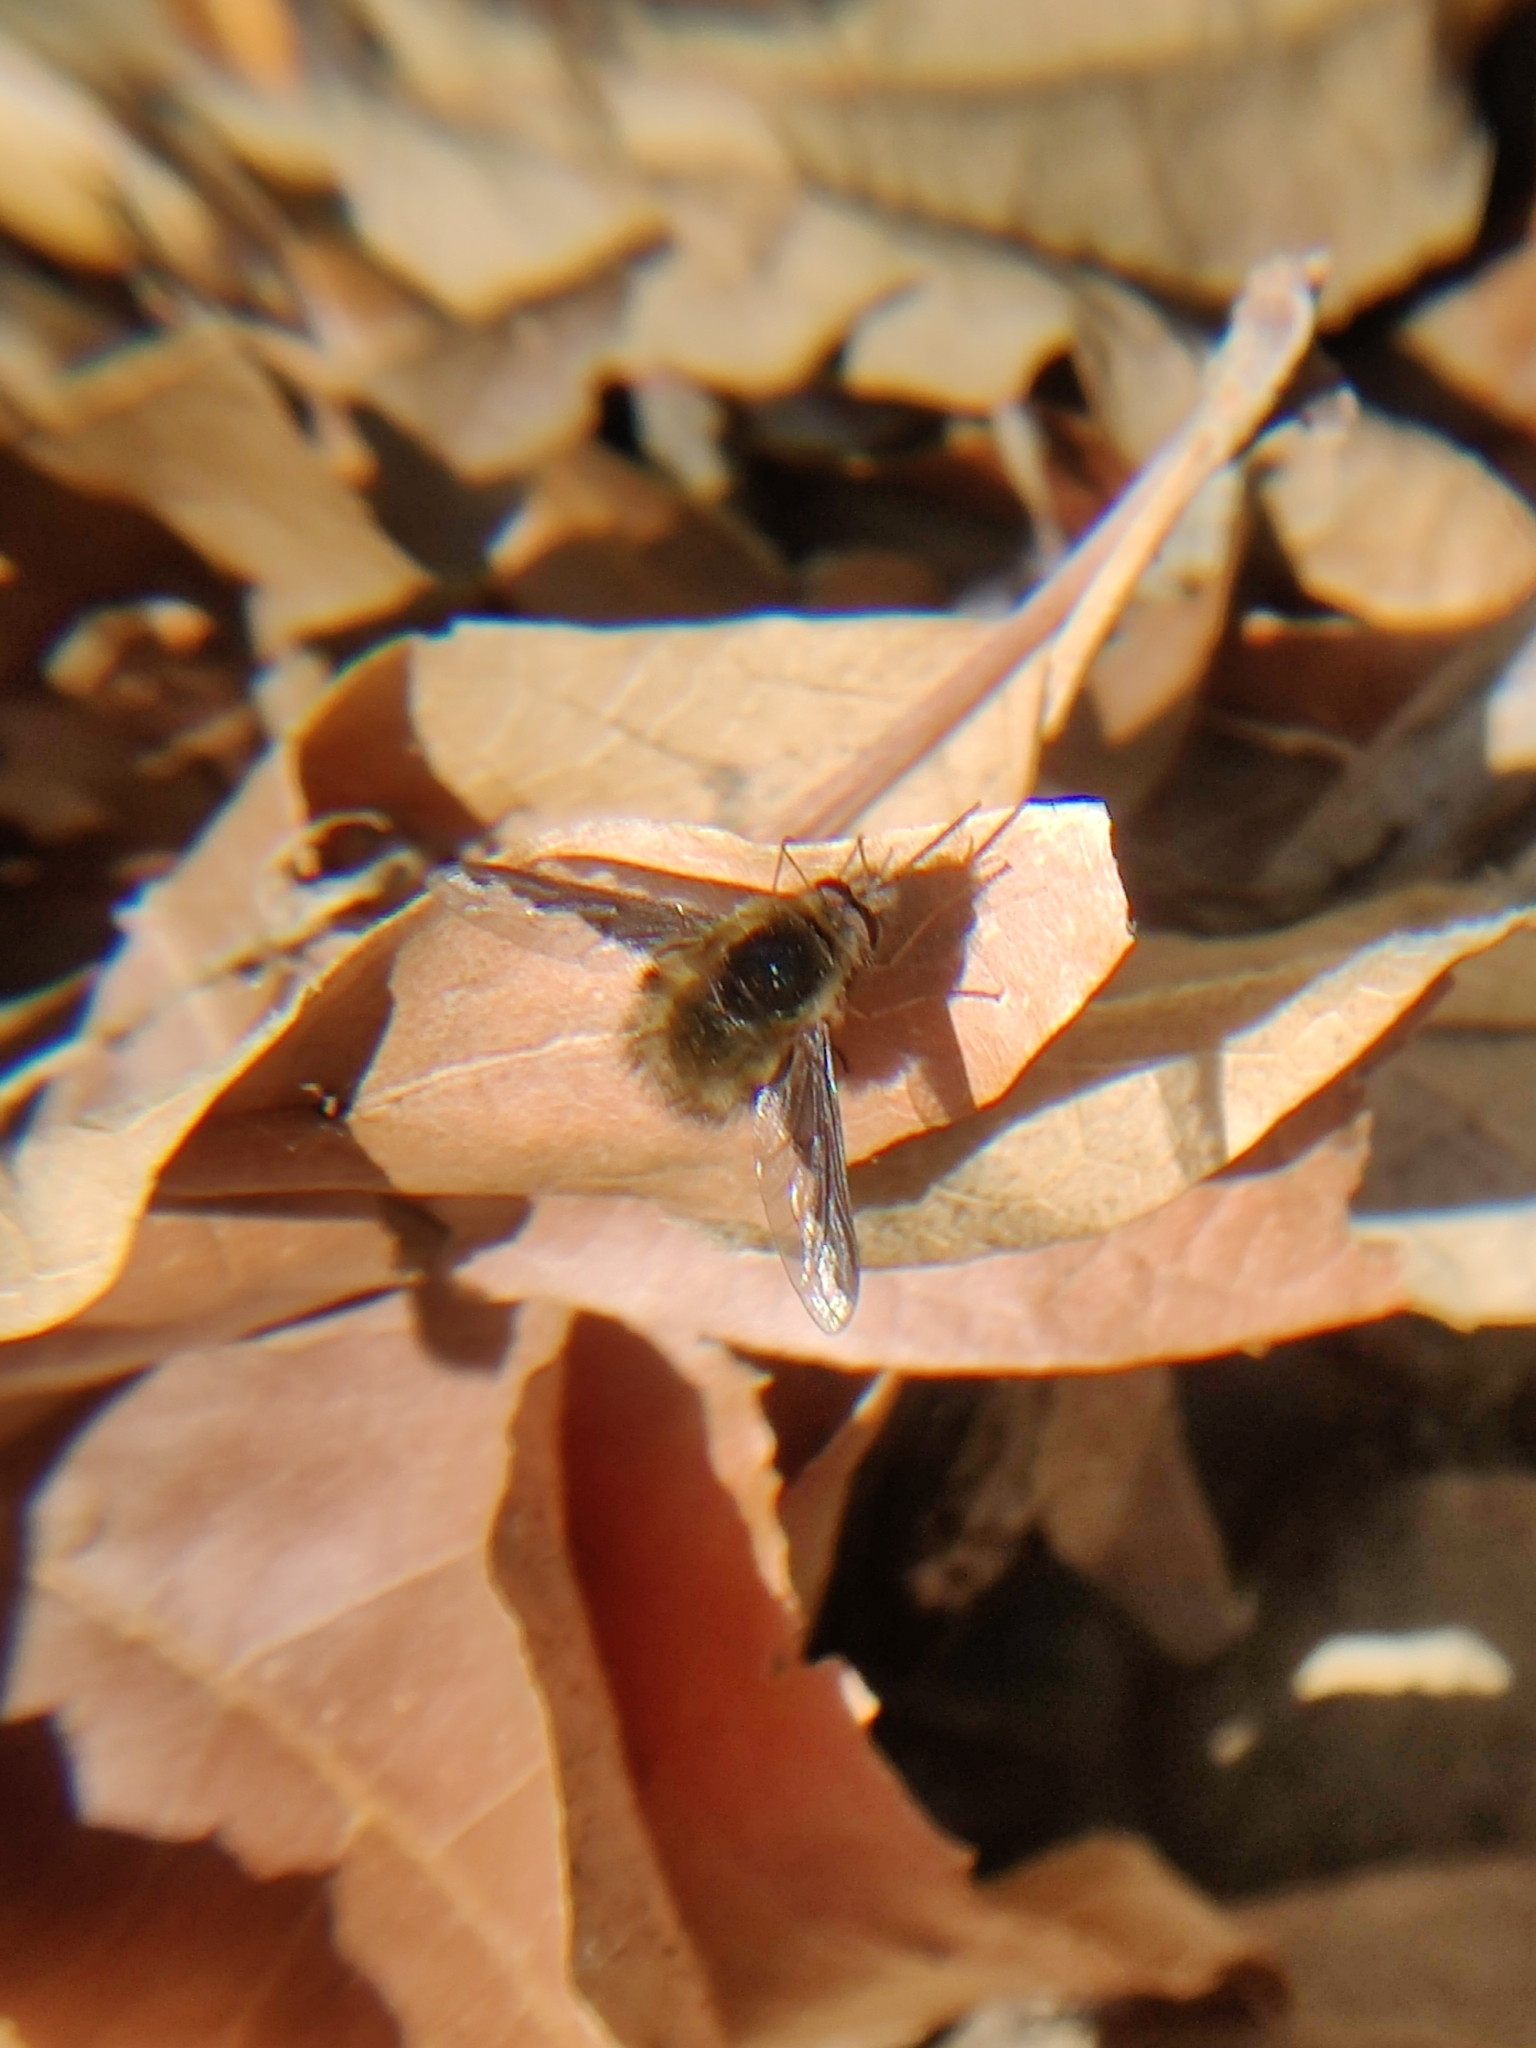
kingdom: Animalia
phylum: Arthropoda
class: Insecta
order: Diptera
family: Bombyliidae
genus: Bombylius
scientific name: Bombylius major
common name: Bee fly
